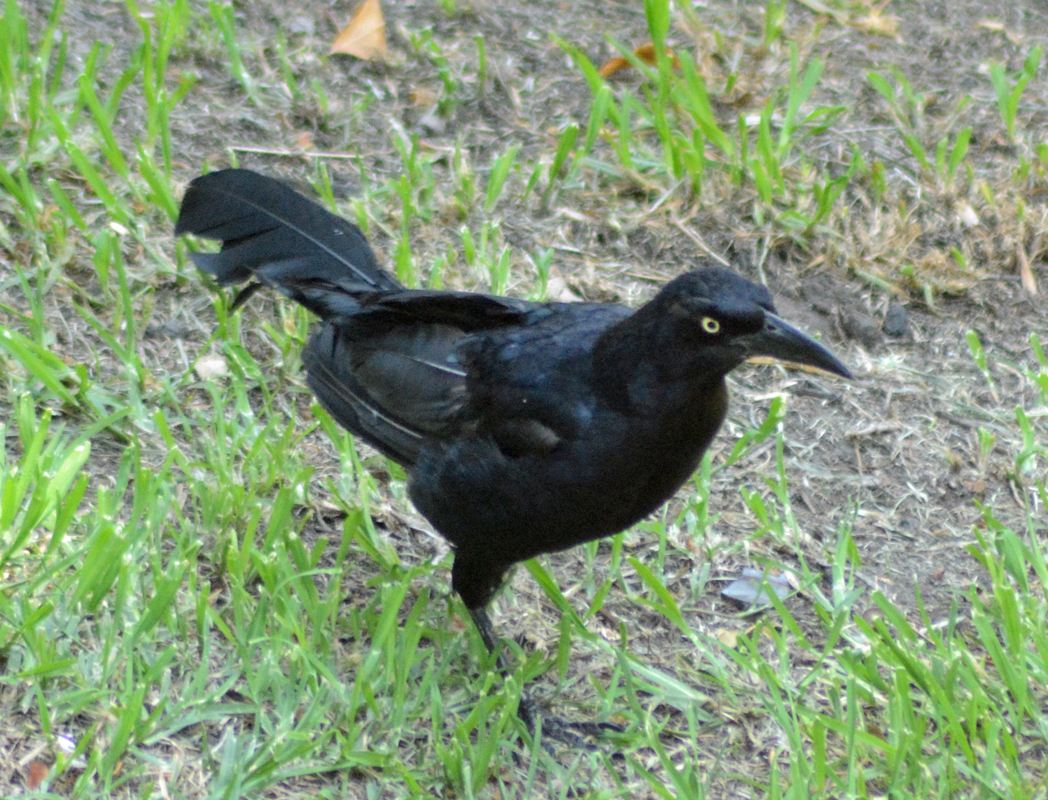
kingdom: Animalia
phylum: Chordata
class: Aves
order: Passeriformes
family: Icteridae
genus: Quiscalus
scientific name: Quiscalus mexicanus
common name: Great-tailed grackle
